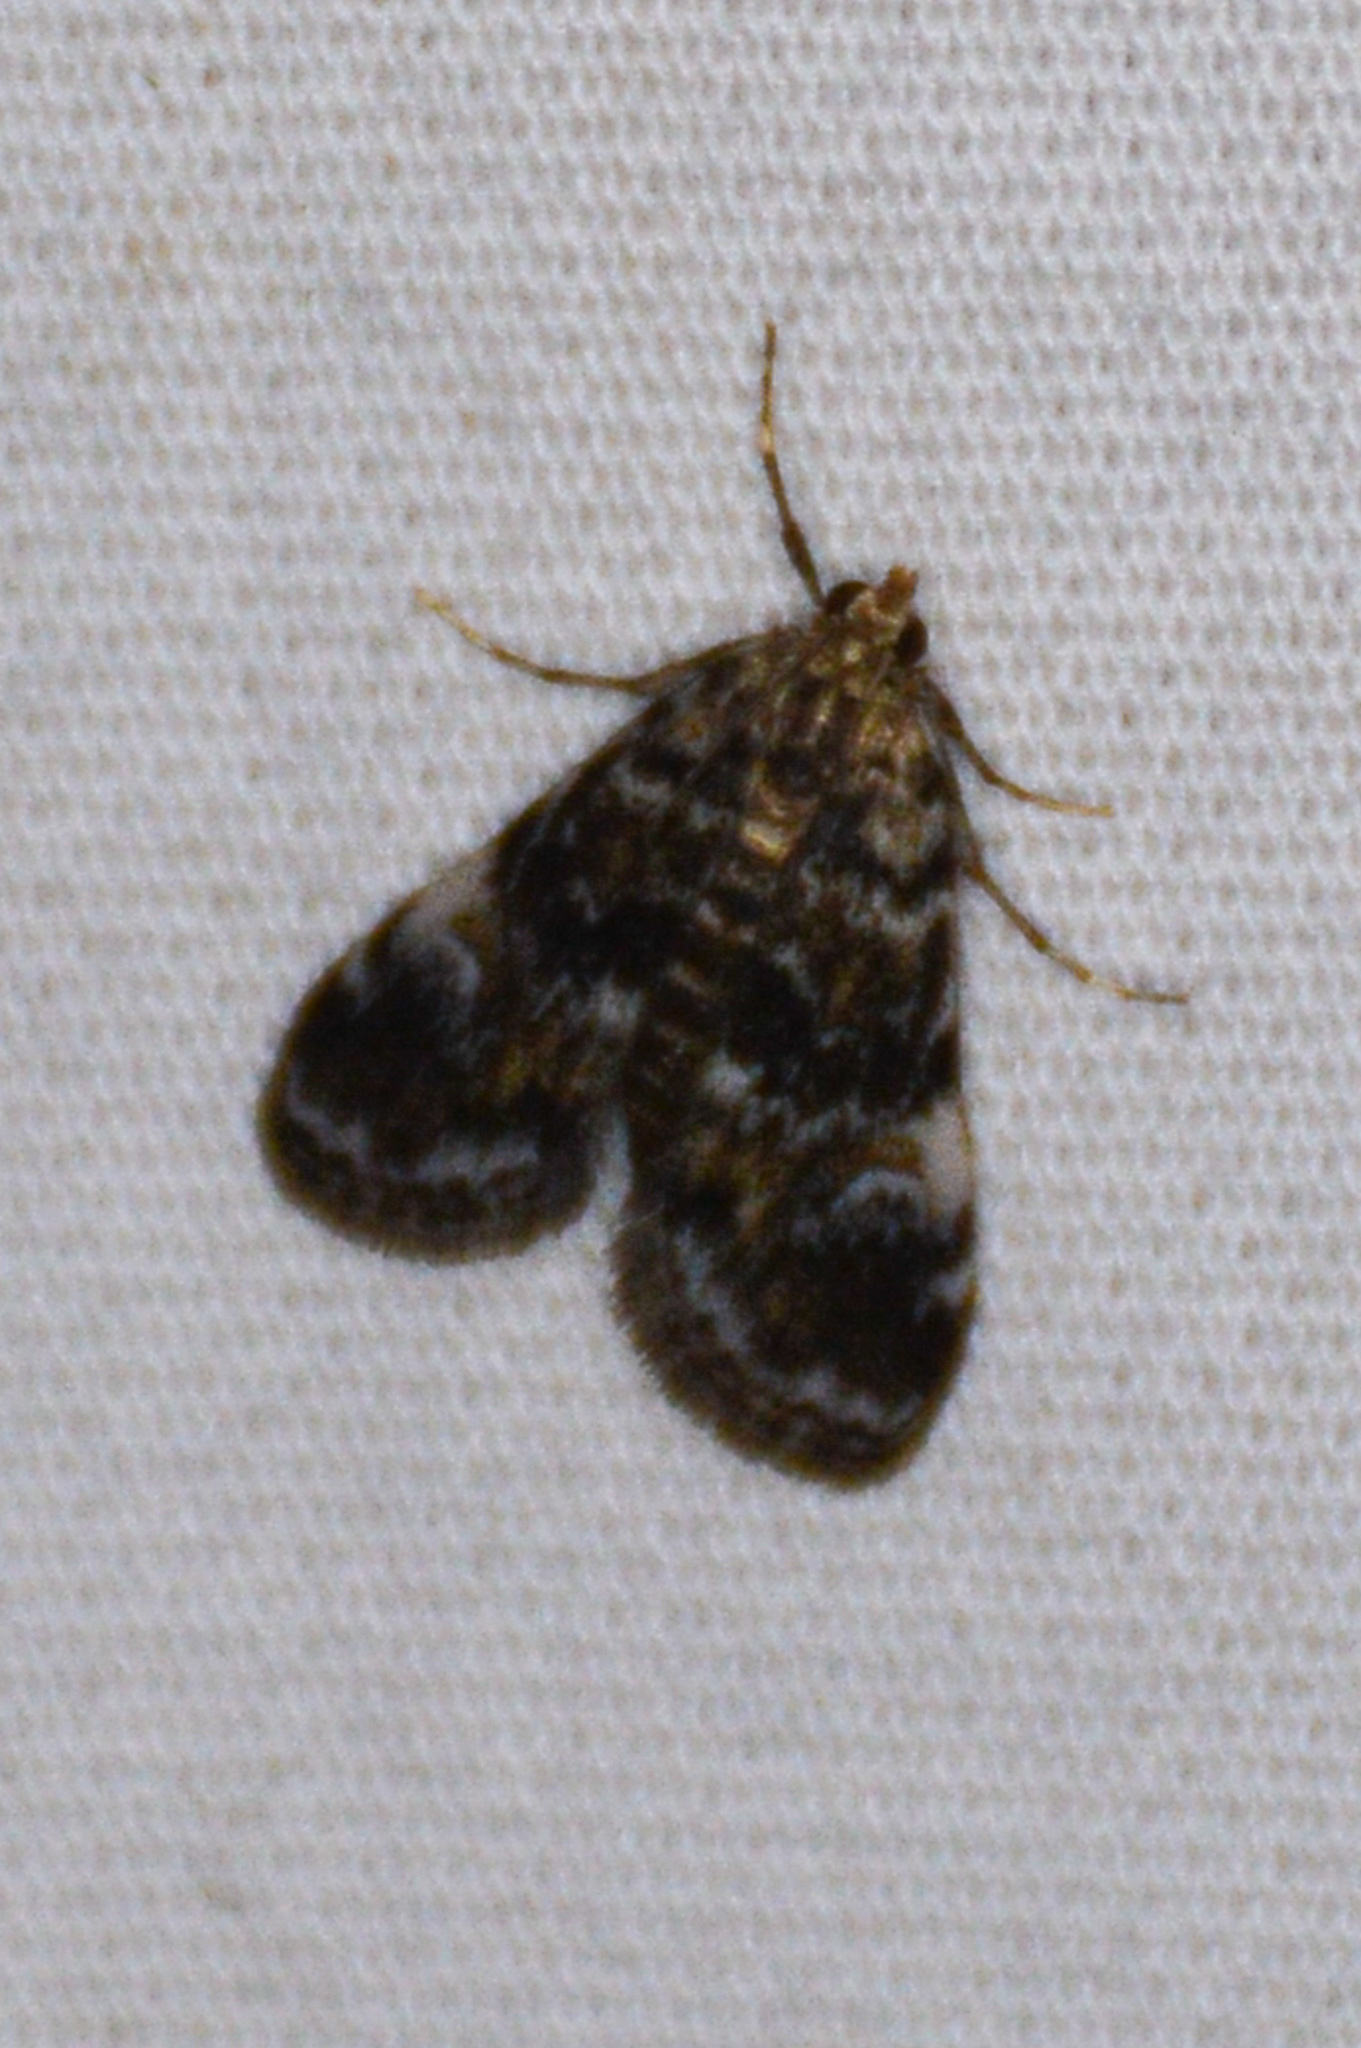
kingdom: Animalia
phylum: Arthropoda
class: Insecta
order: Lepidoptera
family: Crambidae
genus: Elophila
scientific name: Elophila obliteralis
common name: Waterlily leafcutter moth
